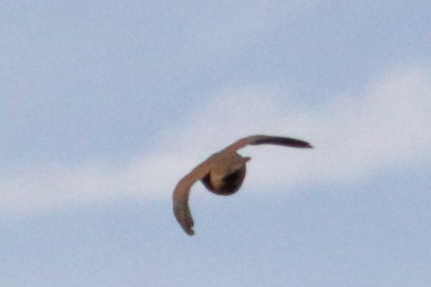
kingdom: Animalia
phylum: Chordata
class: Aves
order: Columbiformes
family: Columbidae
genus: Columbina
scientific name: Columbina passerina
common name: Common ground-dove
